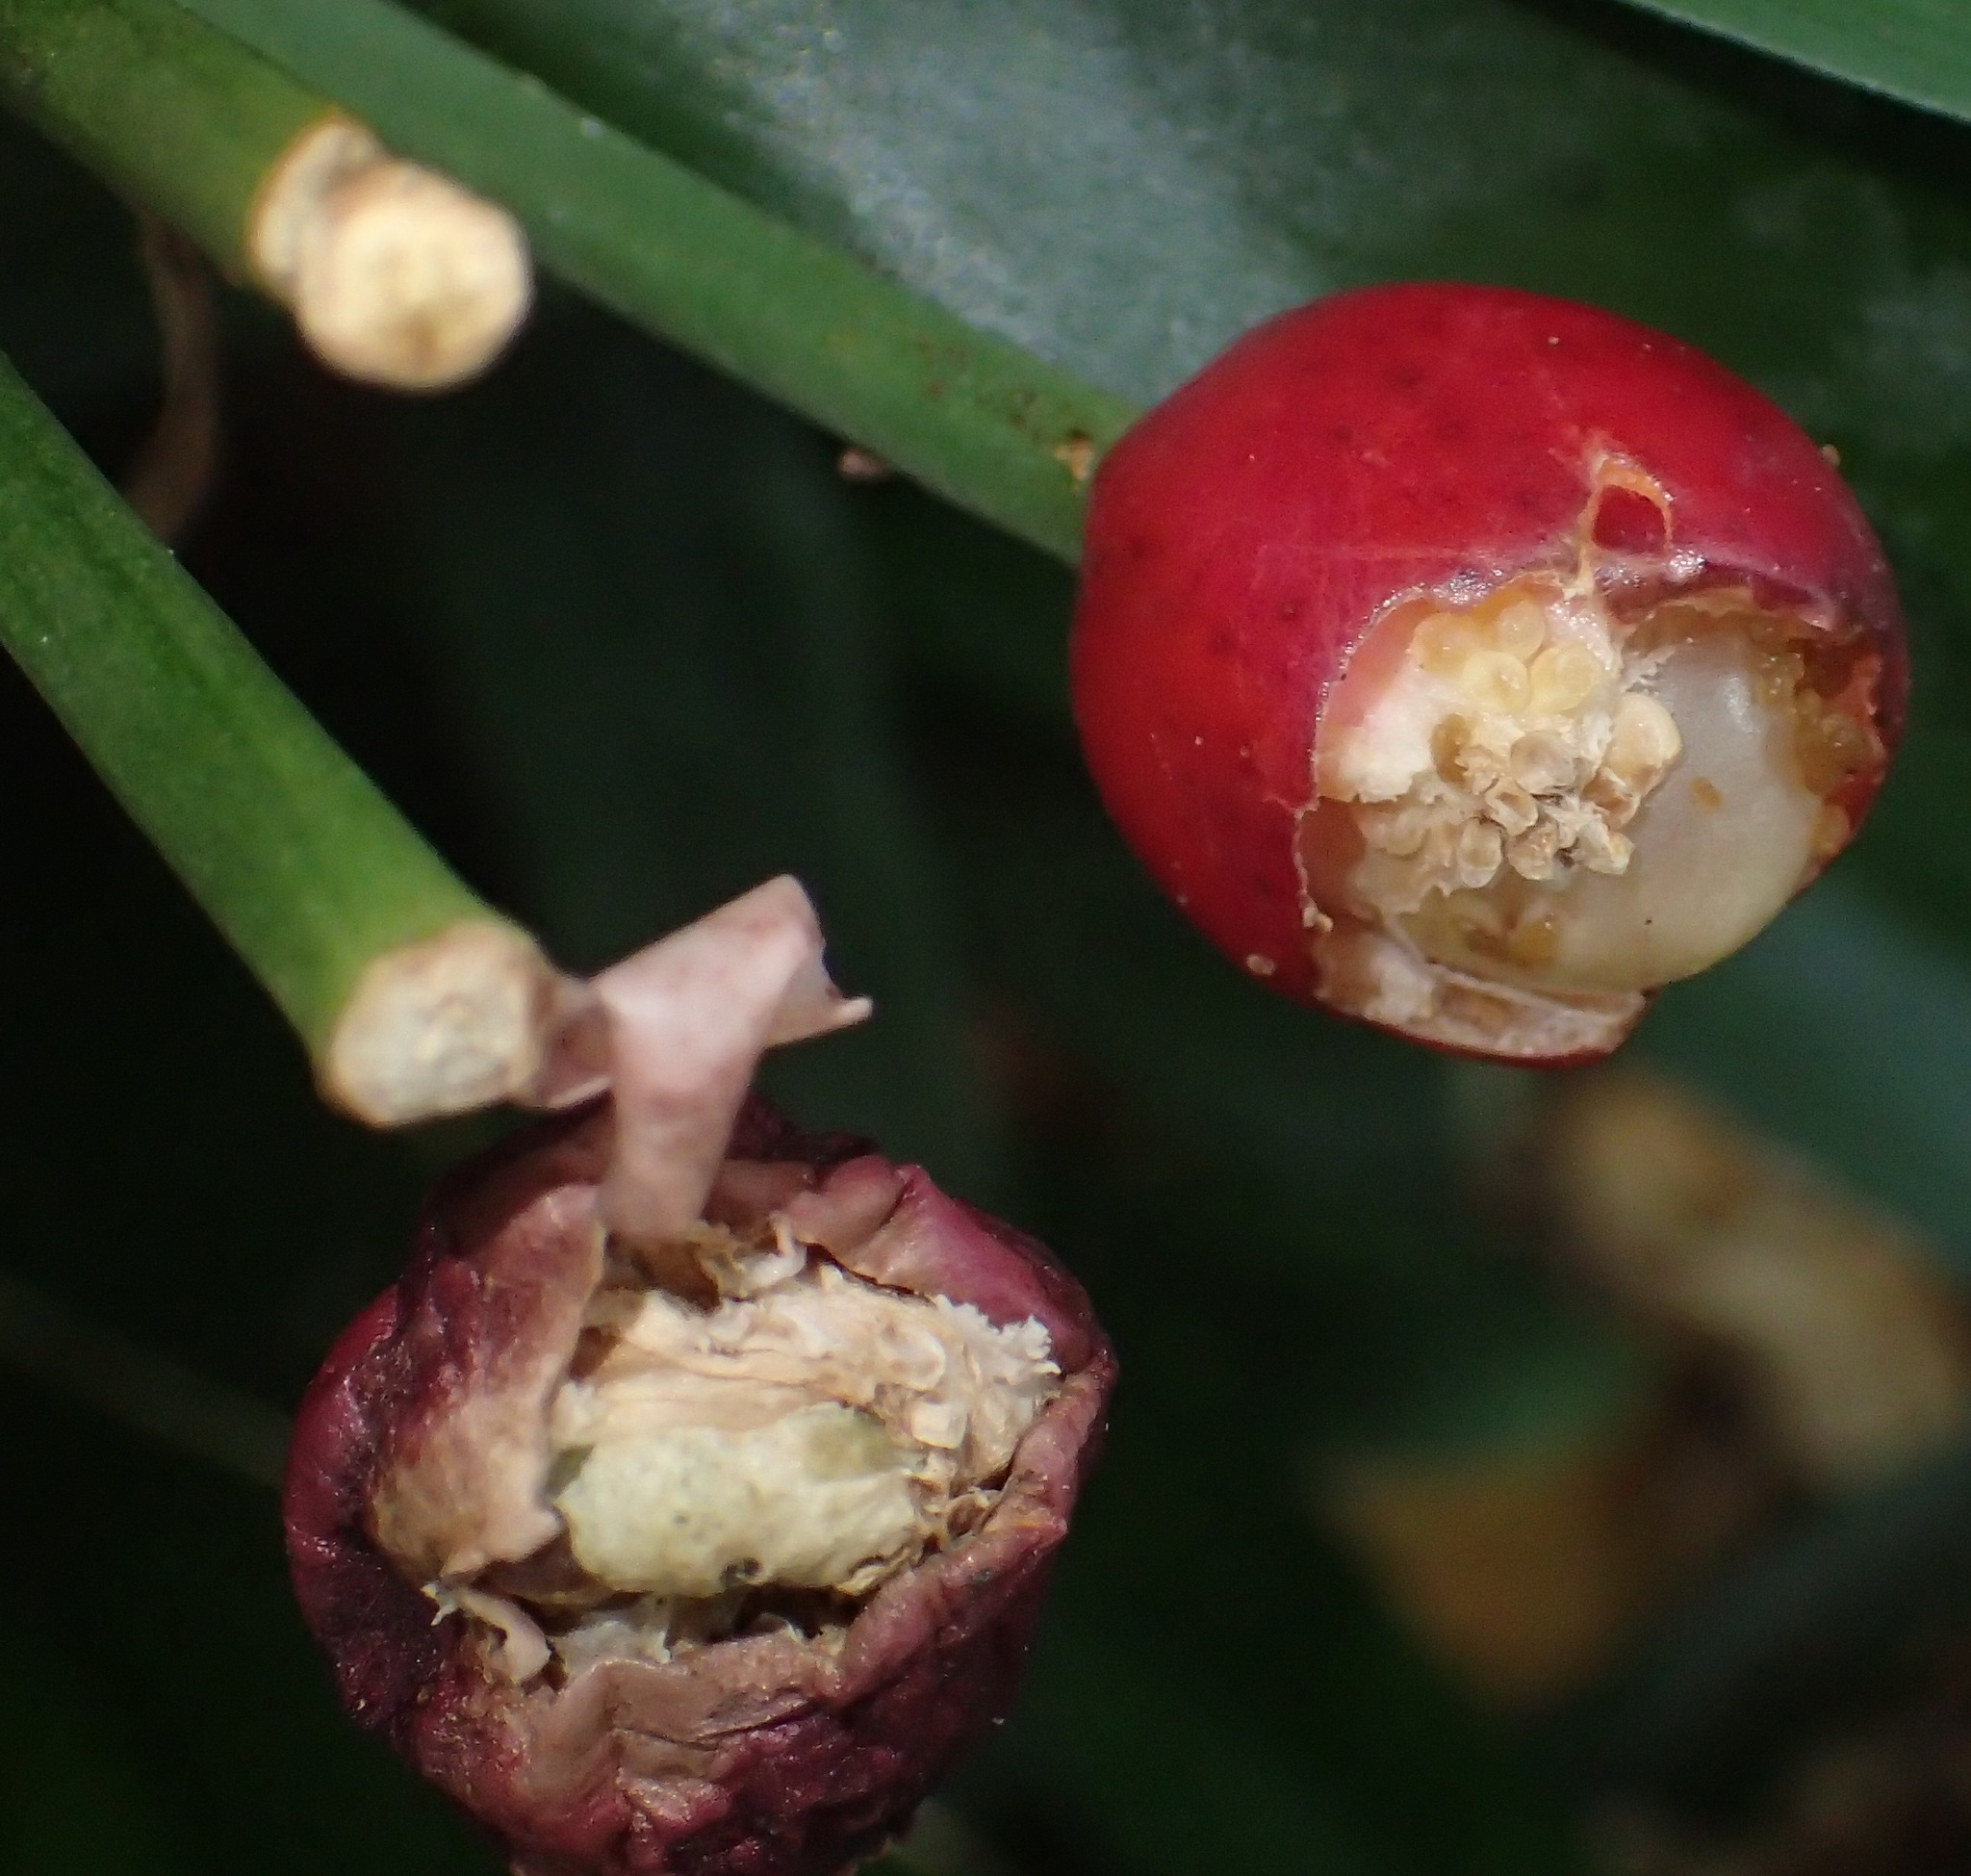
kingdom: Plantae
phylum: Tracheophyta
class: Liliopsida
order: Asparagales
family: Amaryllidaceae
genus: Clivia
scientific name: Clivia miniata
